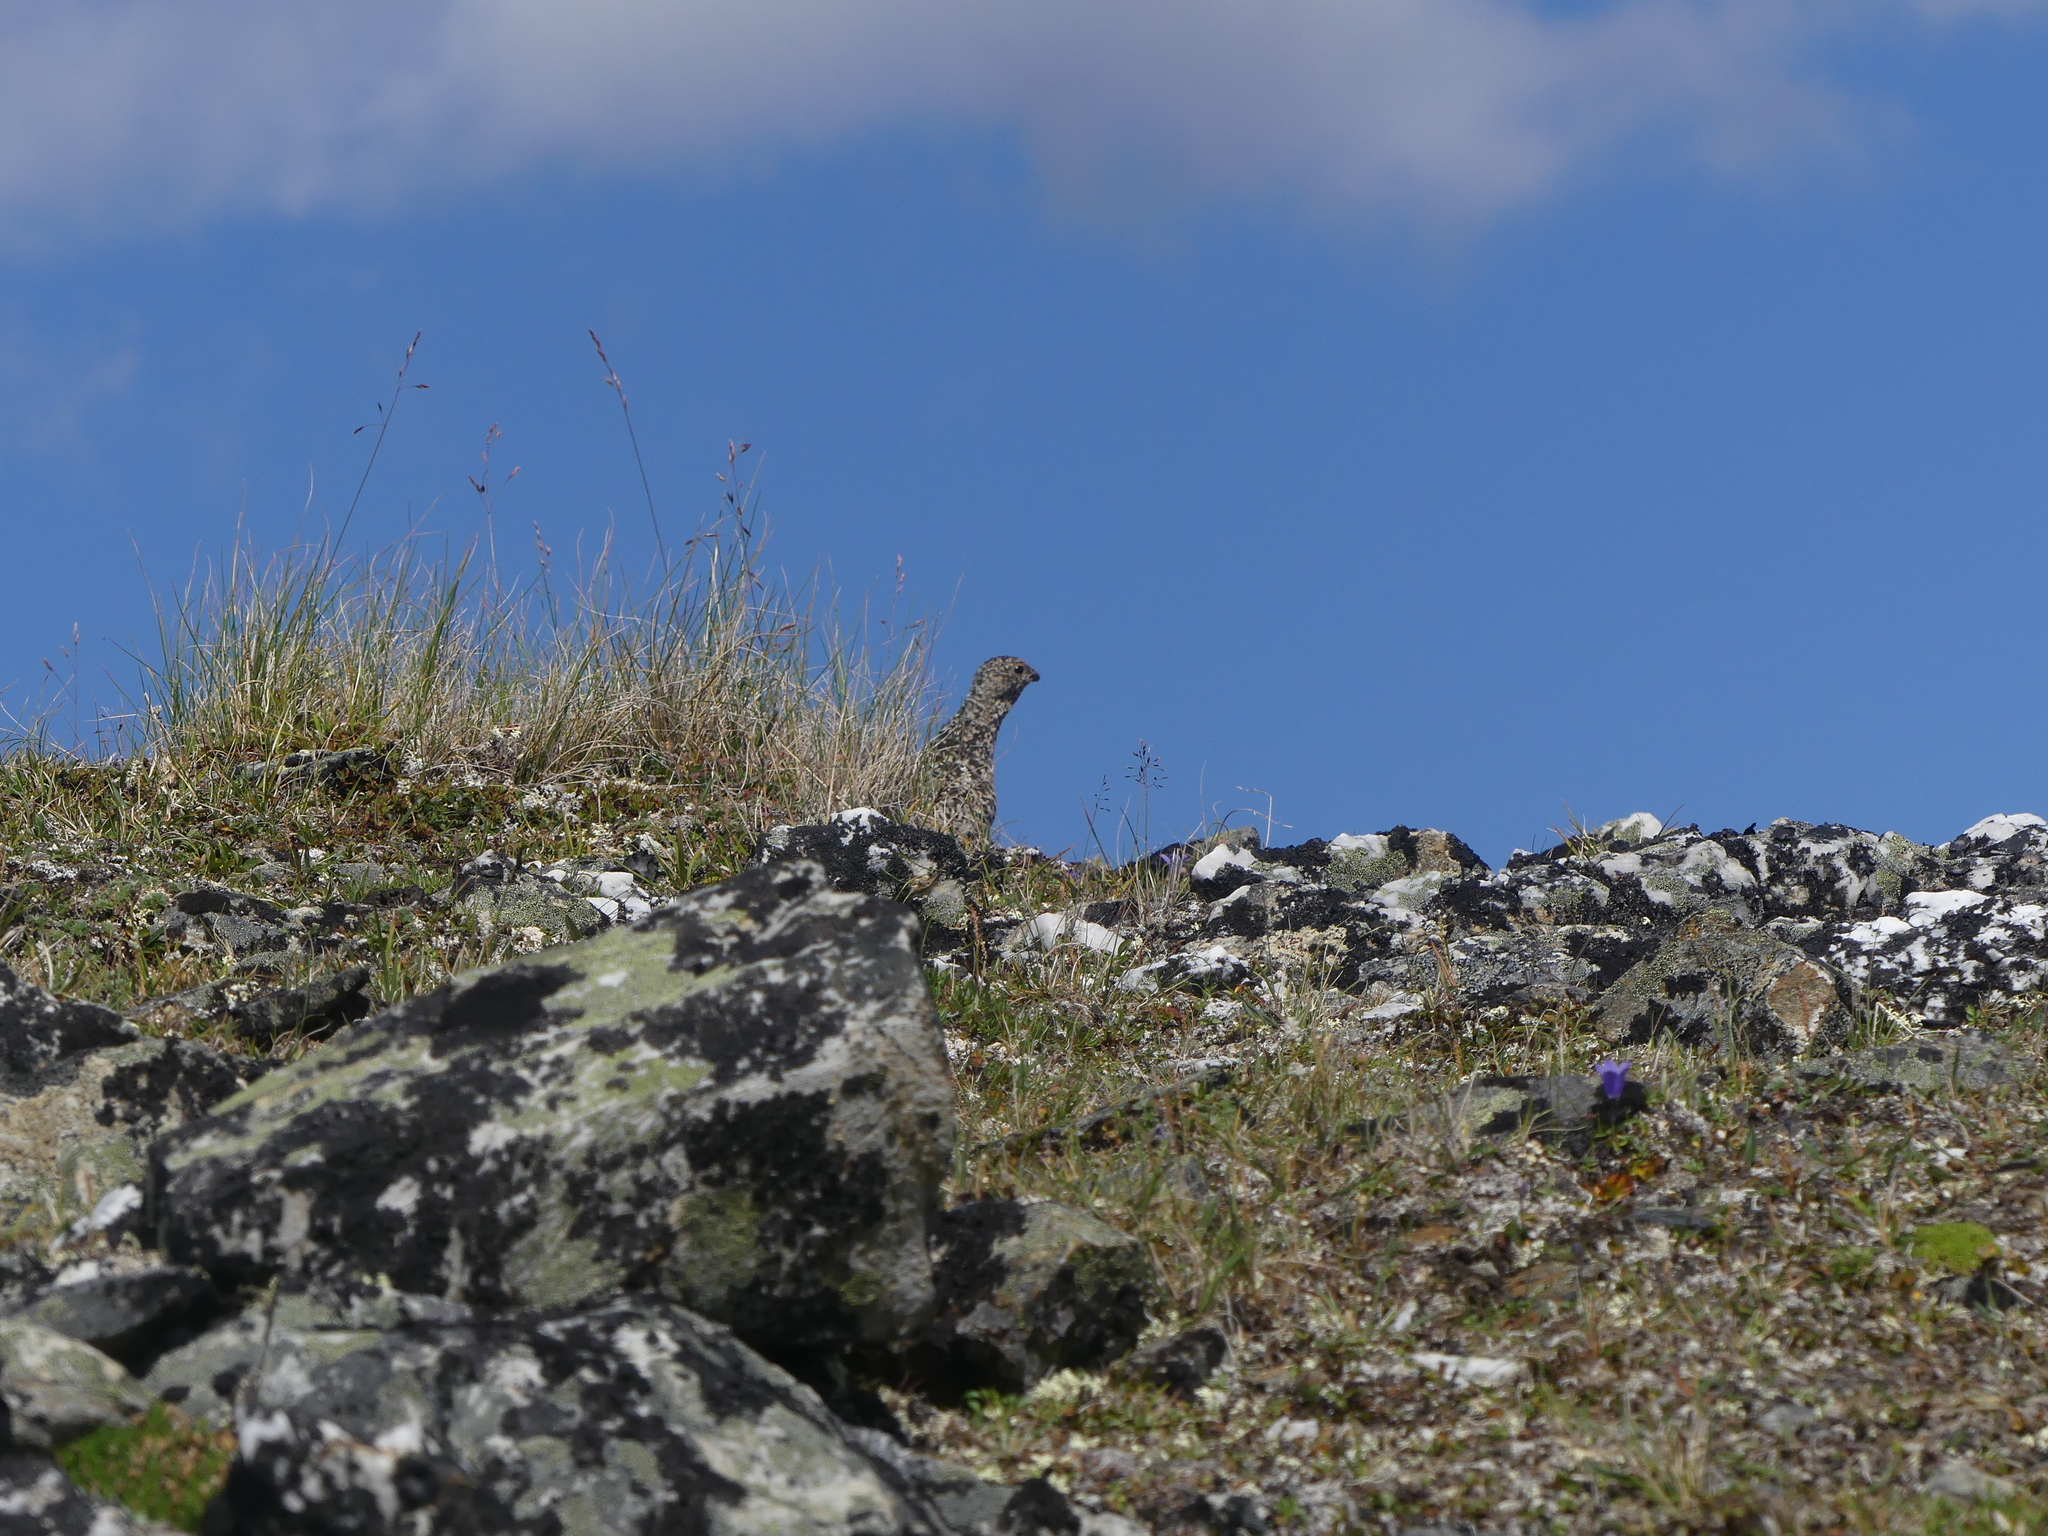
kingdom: Animalia
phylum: Chordata
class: Aves
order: Galliformes
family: Phasianidae
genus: Lagopus
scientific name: Lagopus leucura
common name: White-tailed ptarmigan
